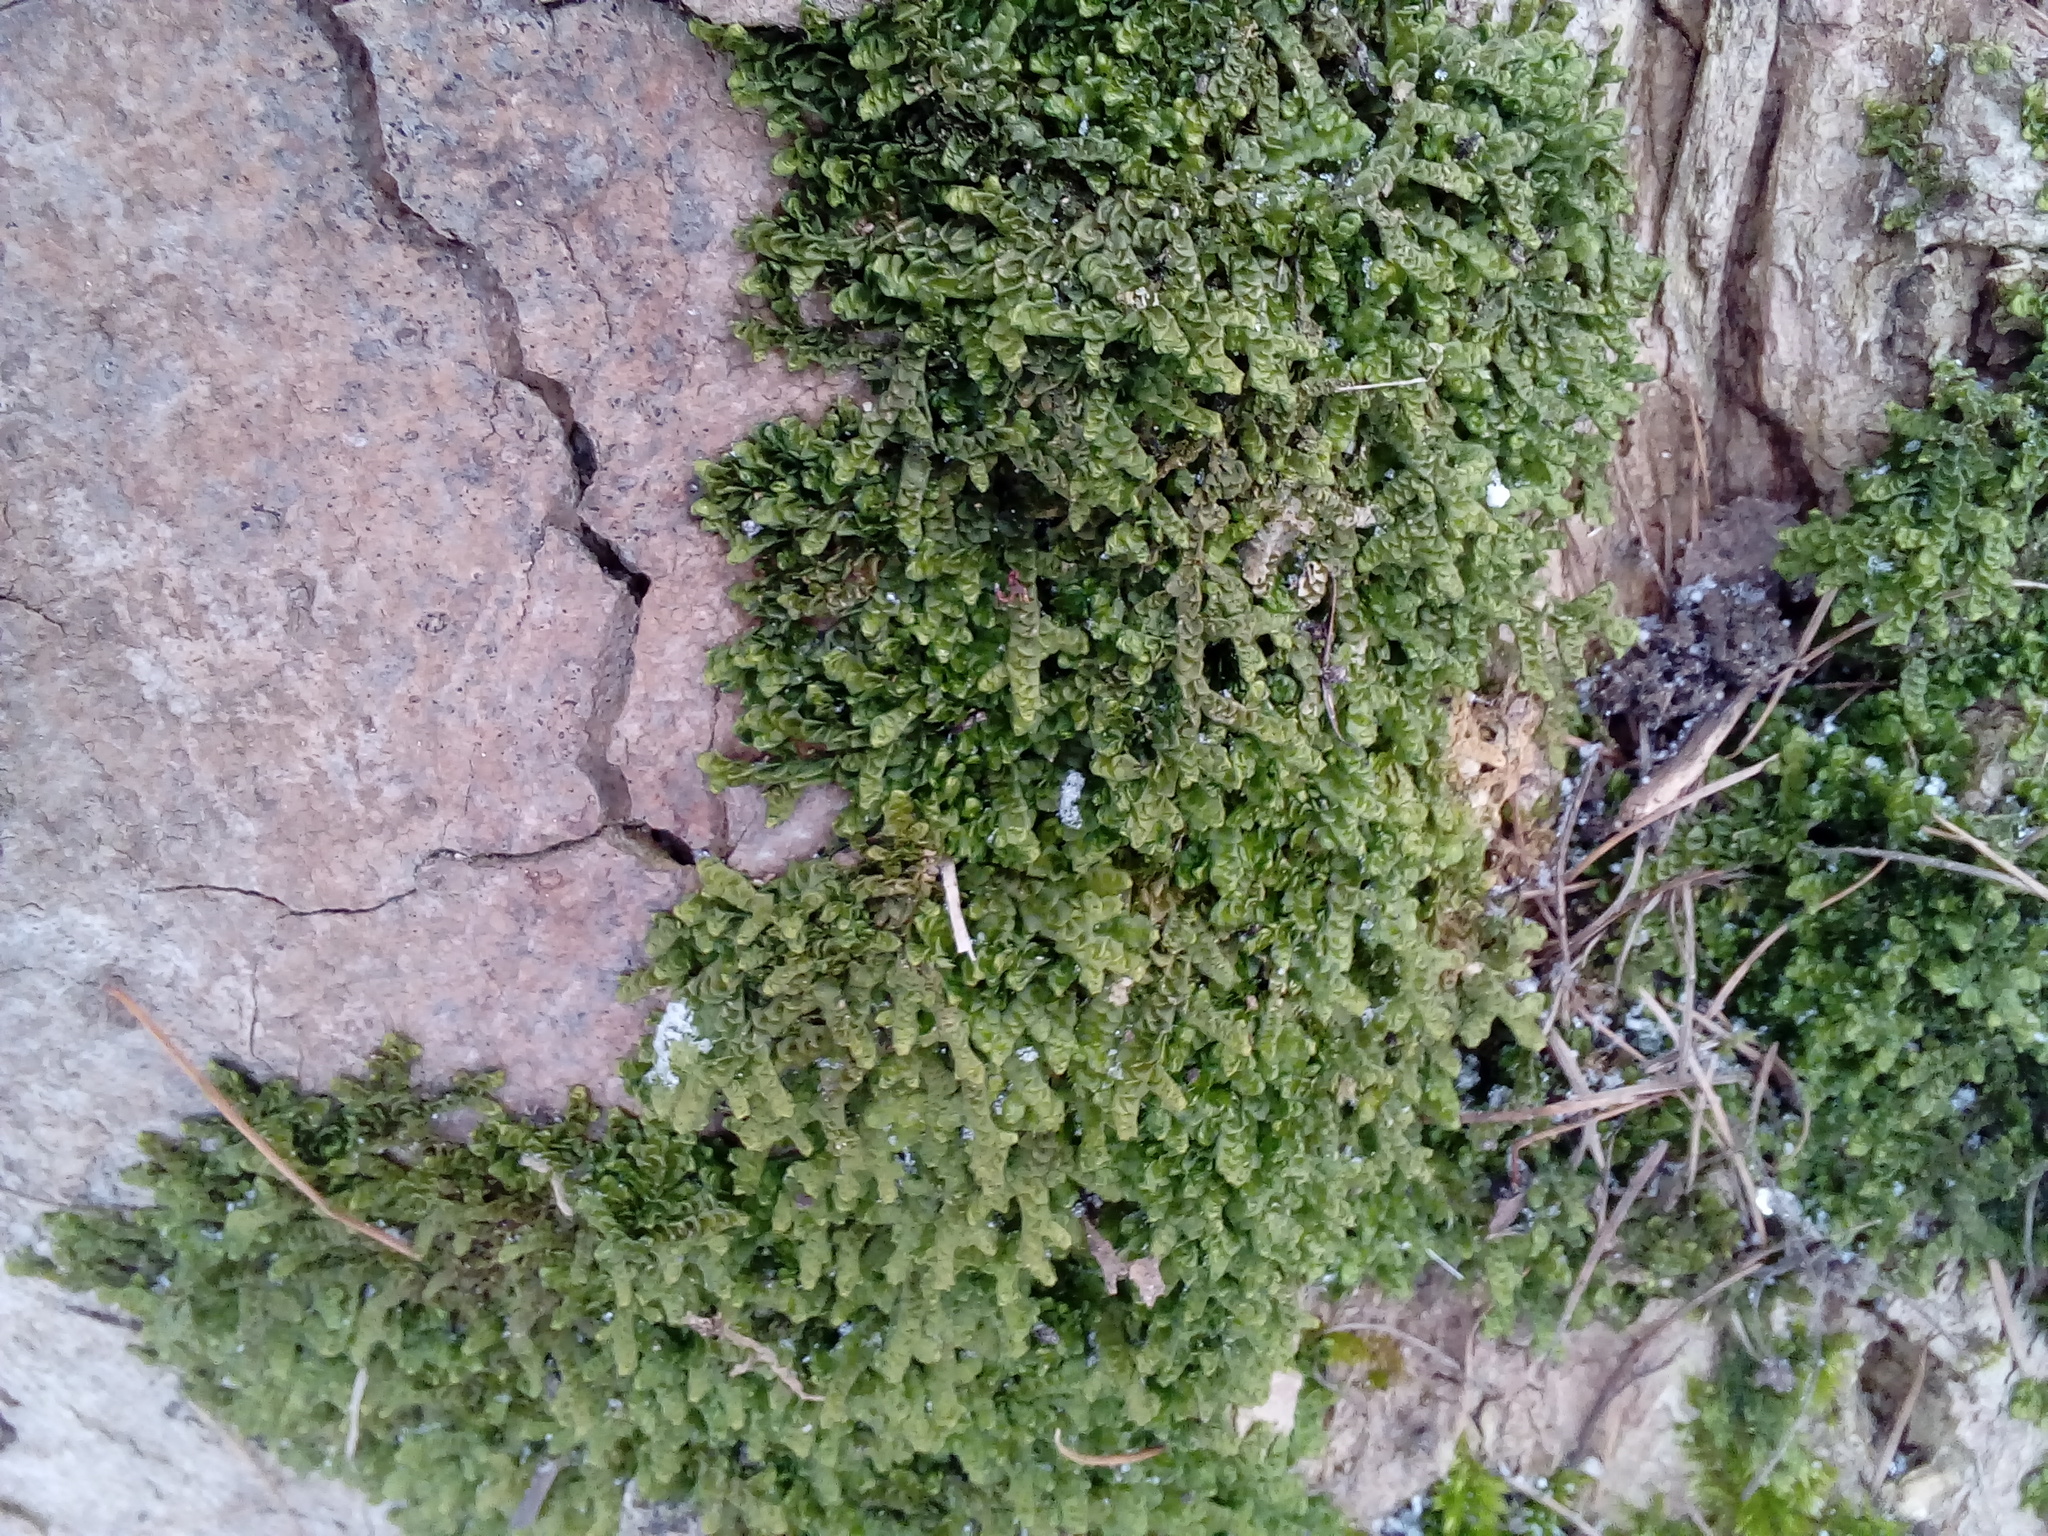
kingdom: Plantae
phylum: Marchantiophyta
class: Jungermanniopsida
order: Porellales
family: Porellaceae
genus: Porella
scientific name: Porella platyphylla
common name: Wall scalewort
